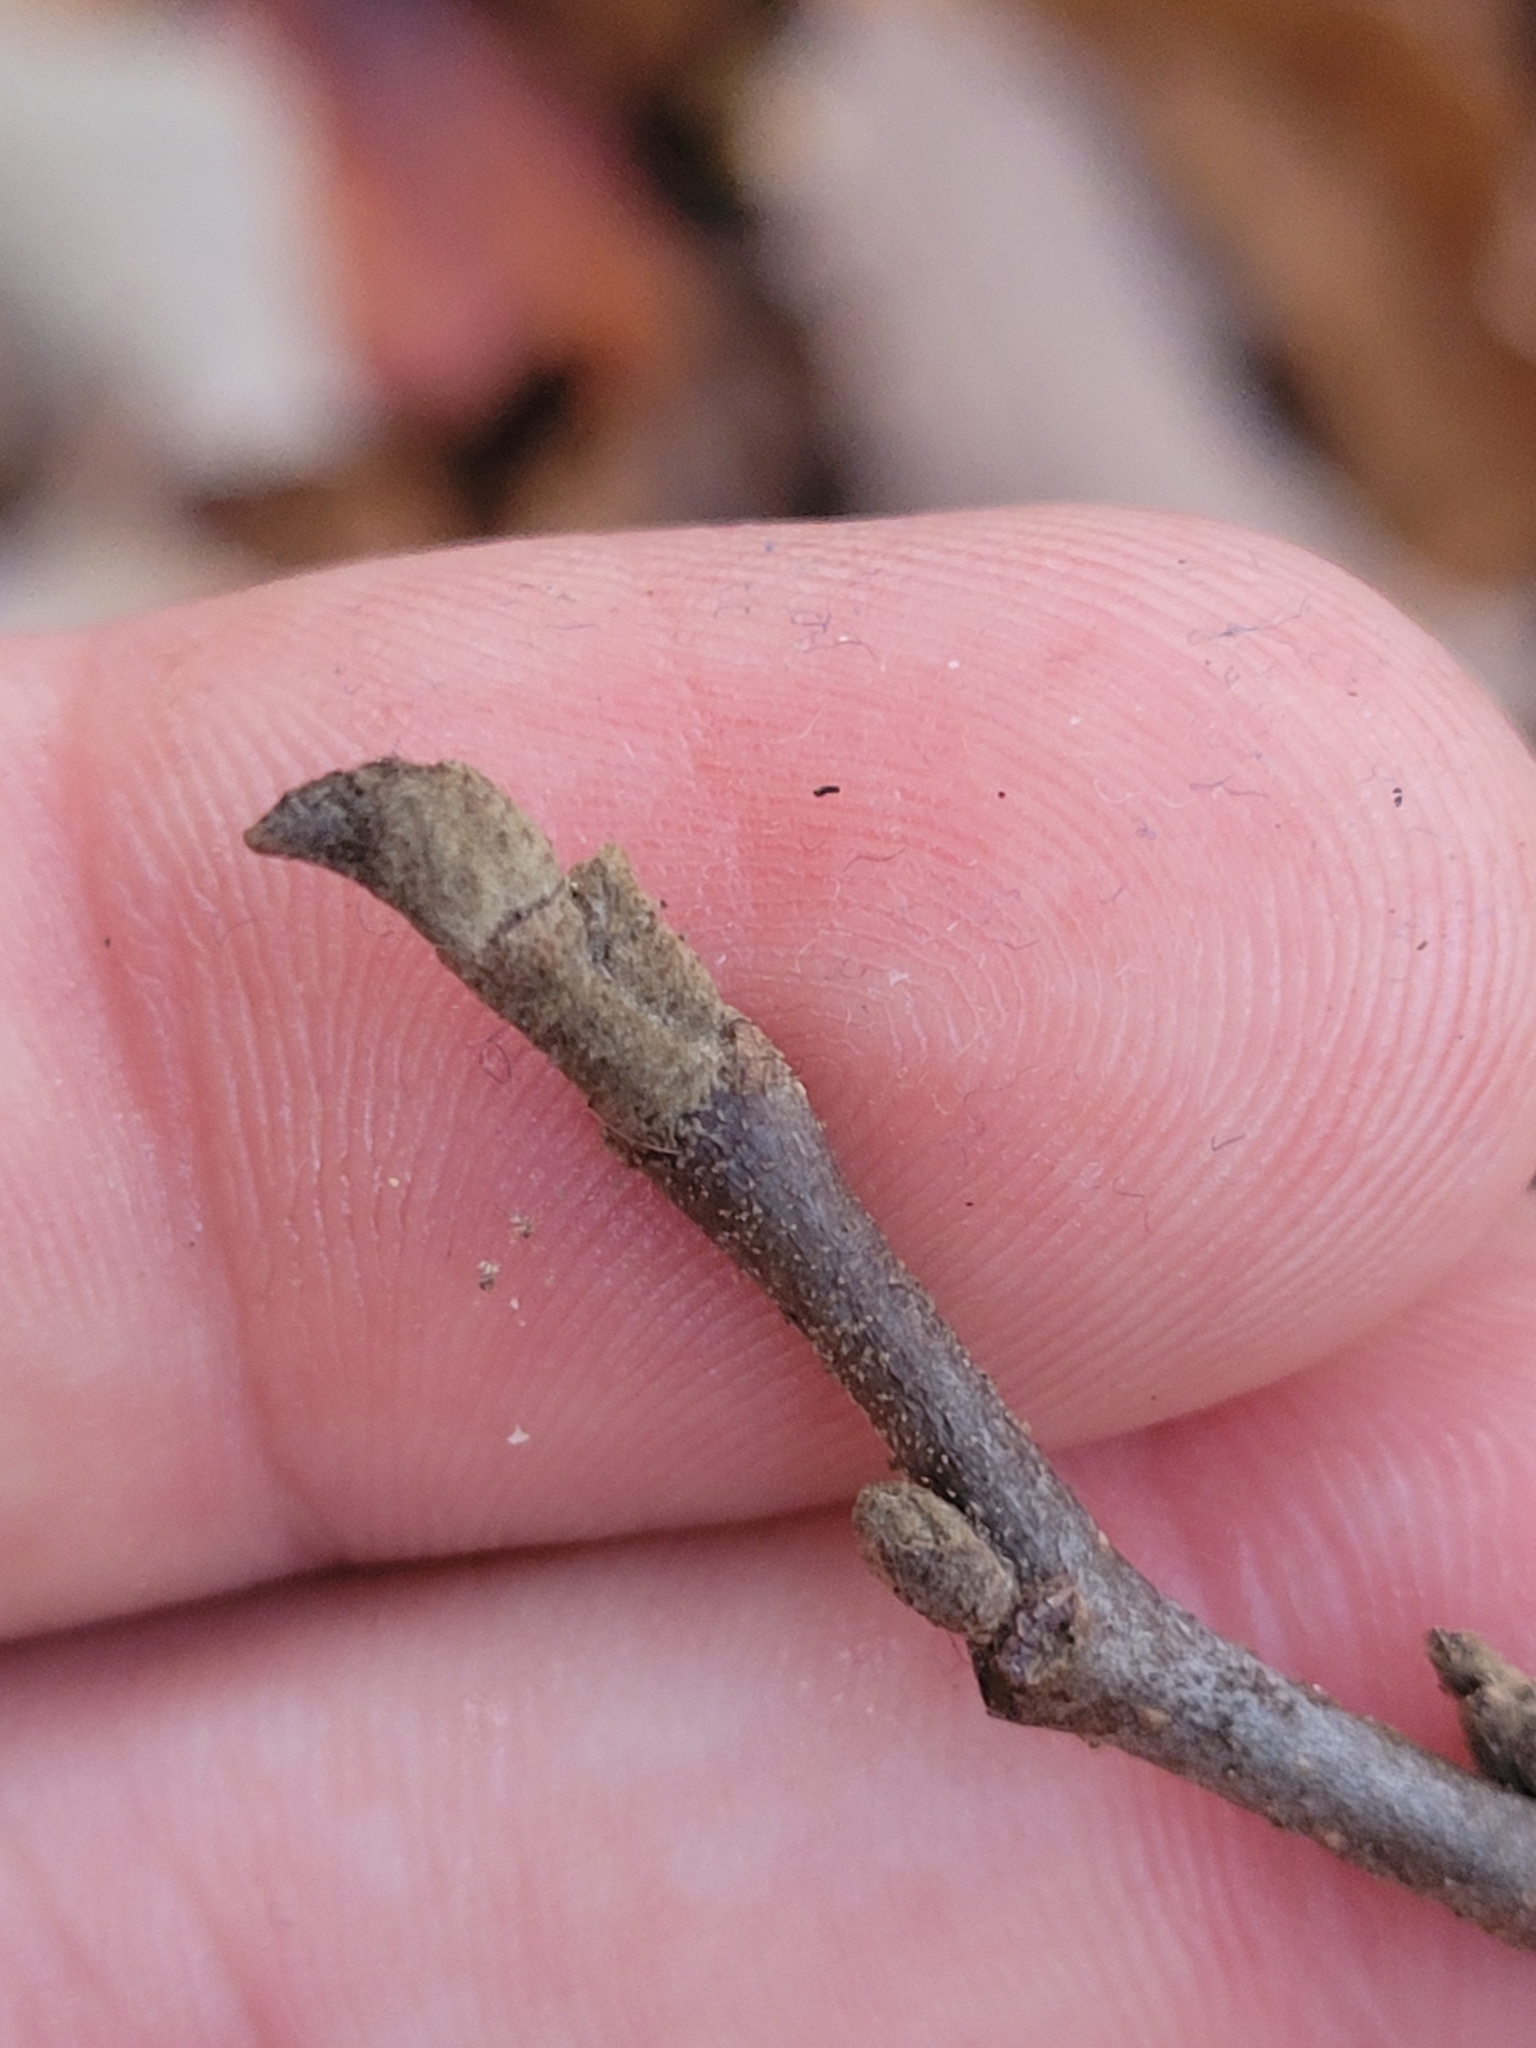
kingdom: Plantae
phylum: Tracheophyta
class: Magnoliopsida
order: Saxifragales
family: Hamamelidaceae
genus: Fothergilla
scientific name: Fothergilla latifolia
